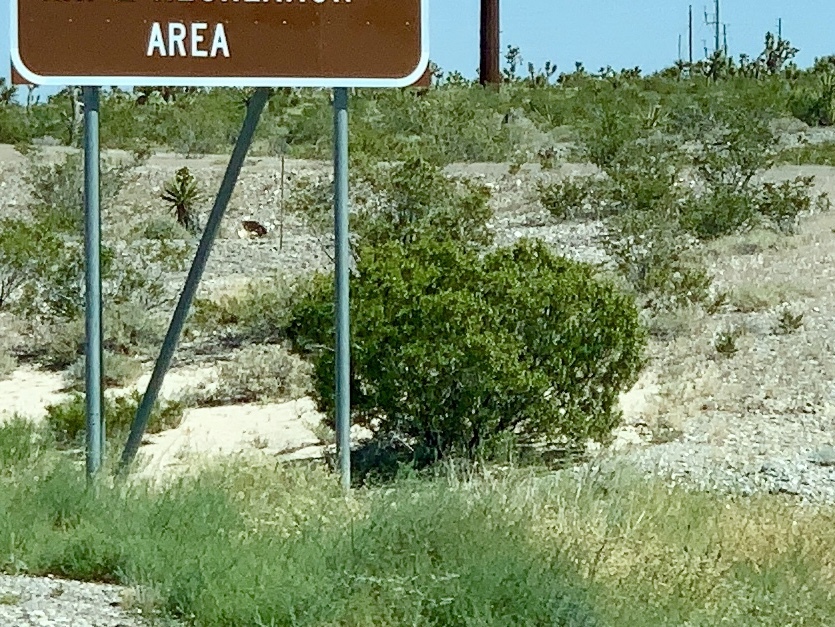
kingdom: Plantae
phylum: Tracheophyta
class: Magnoliopsida
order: Zygophyllales
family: Zygophyllaceae
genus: Larrea
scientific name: Larrea tridentata
